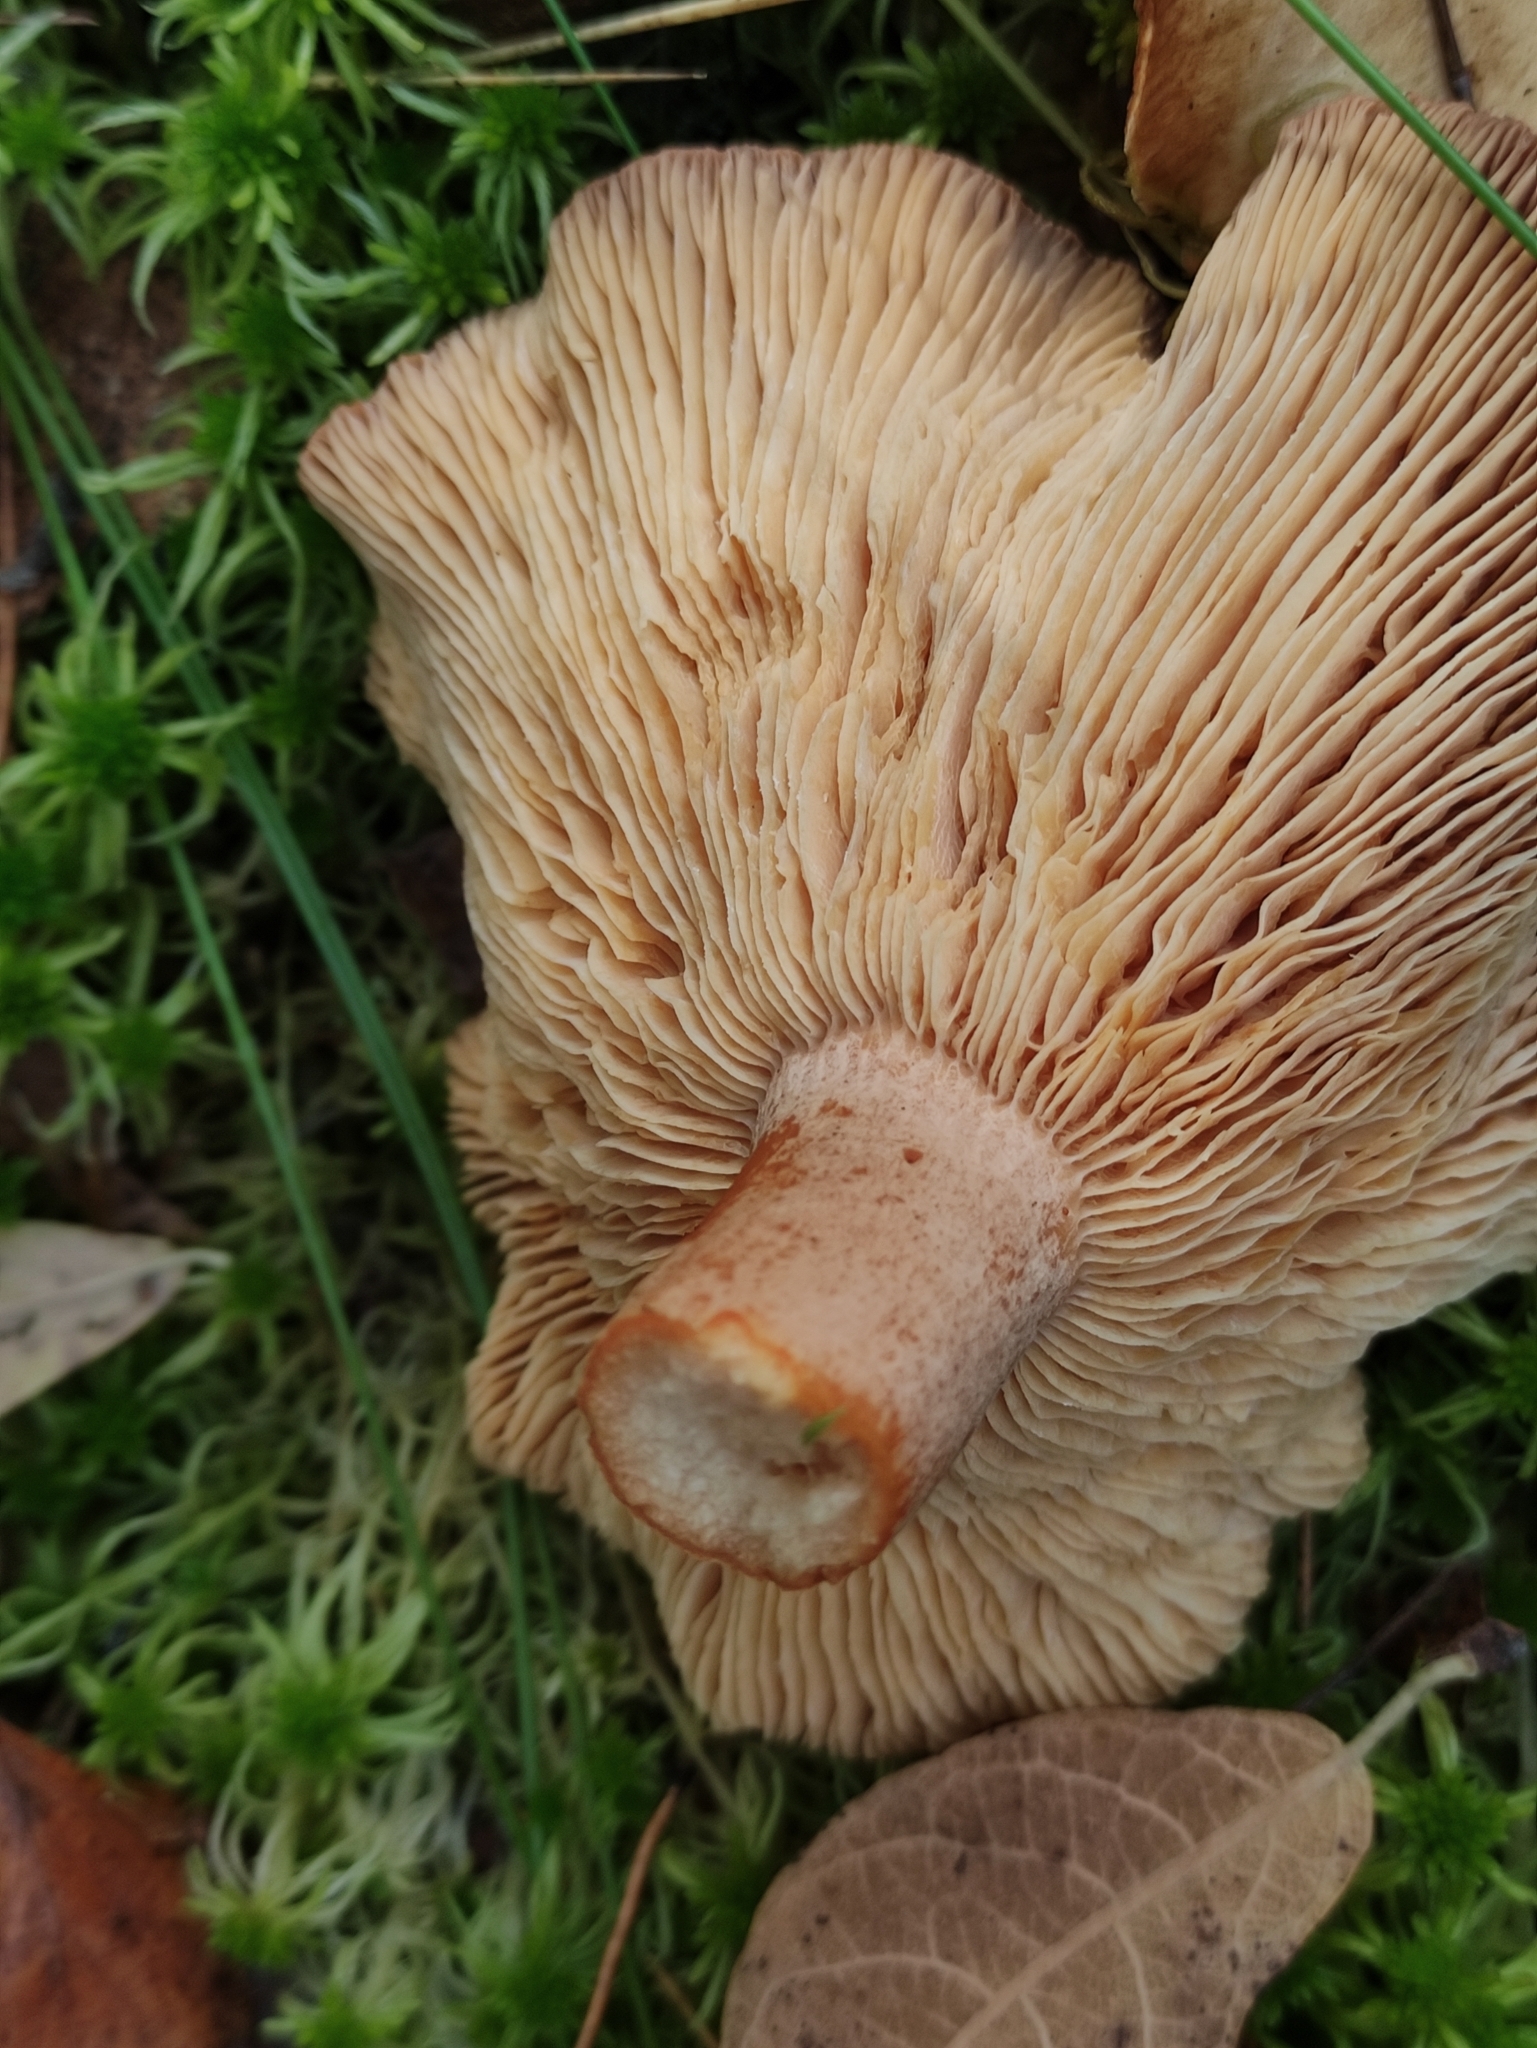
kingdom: Fungi
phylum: Basidiomycota
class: Agaricomycetes
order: Russulales
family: Russulaceae
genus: Lactarius
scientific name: Lactarius helvus
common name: Fenugreek milkcap
